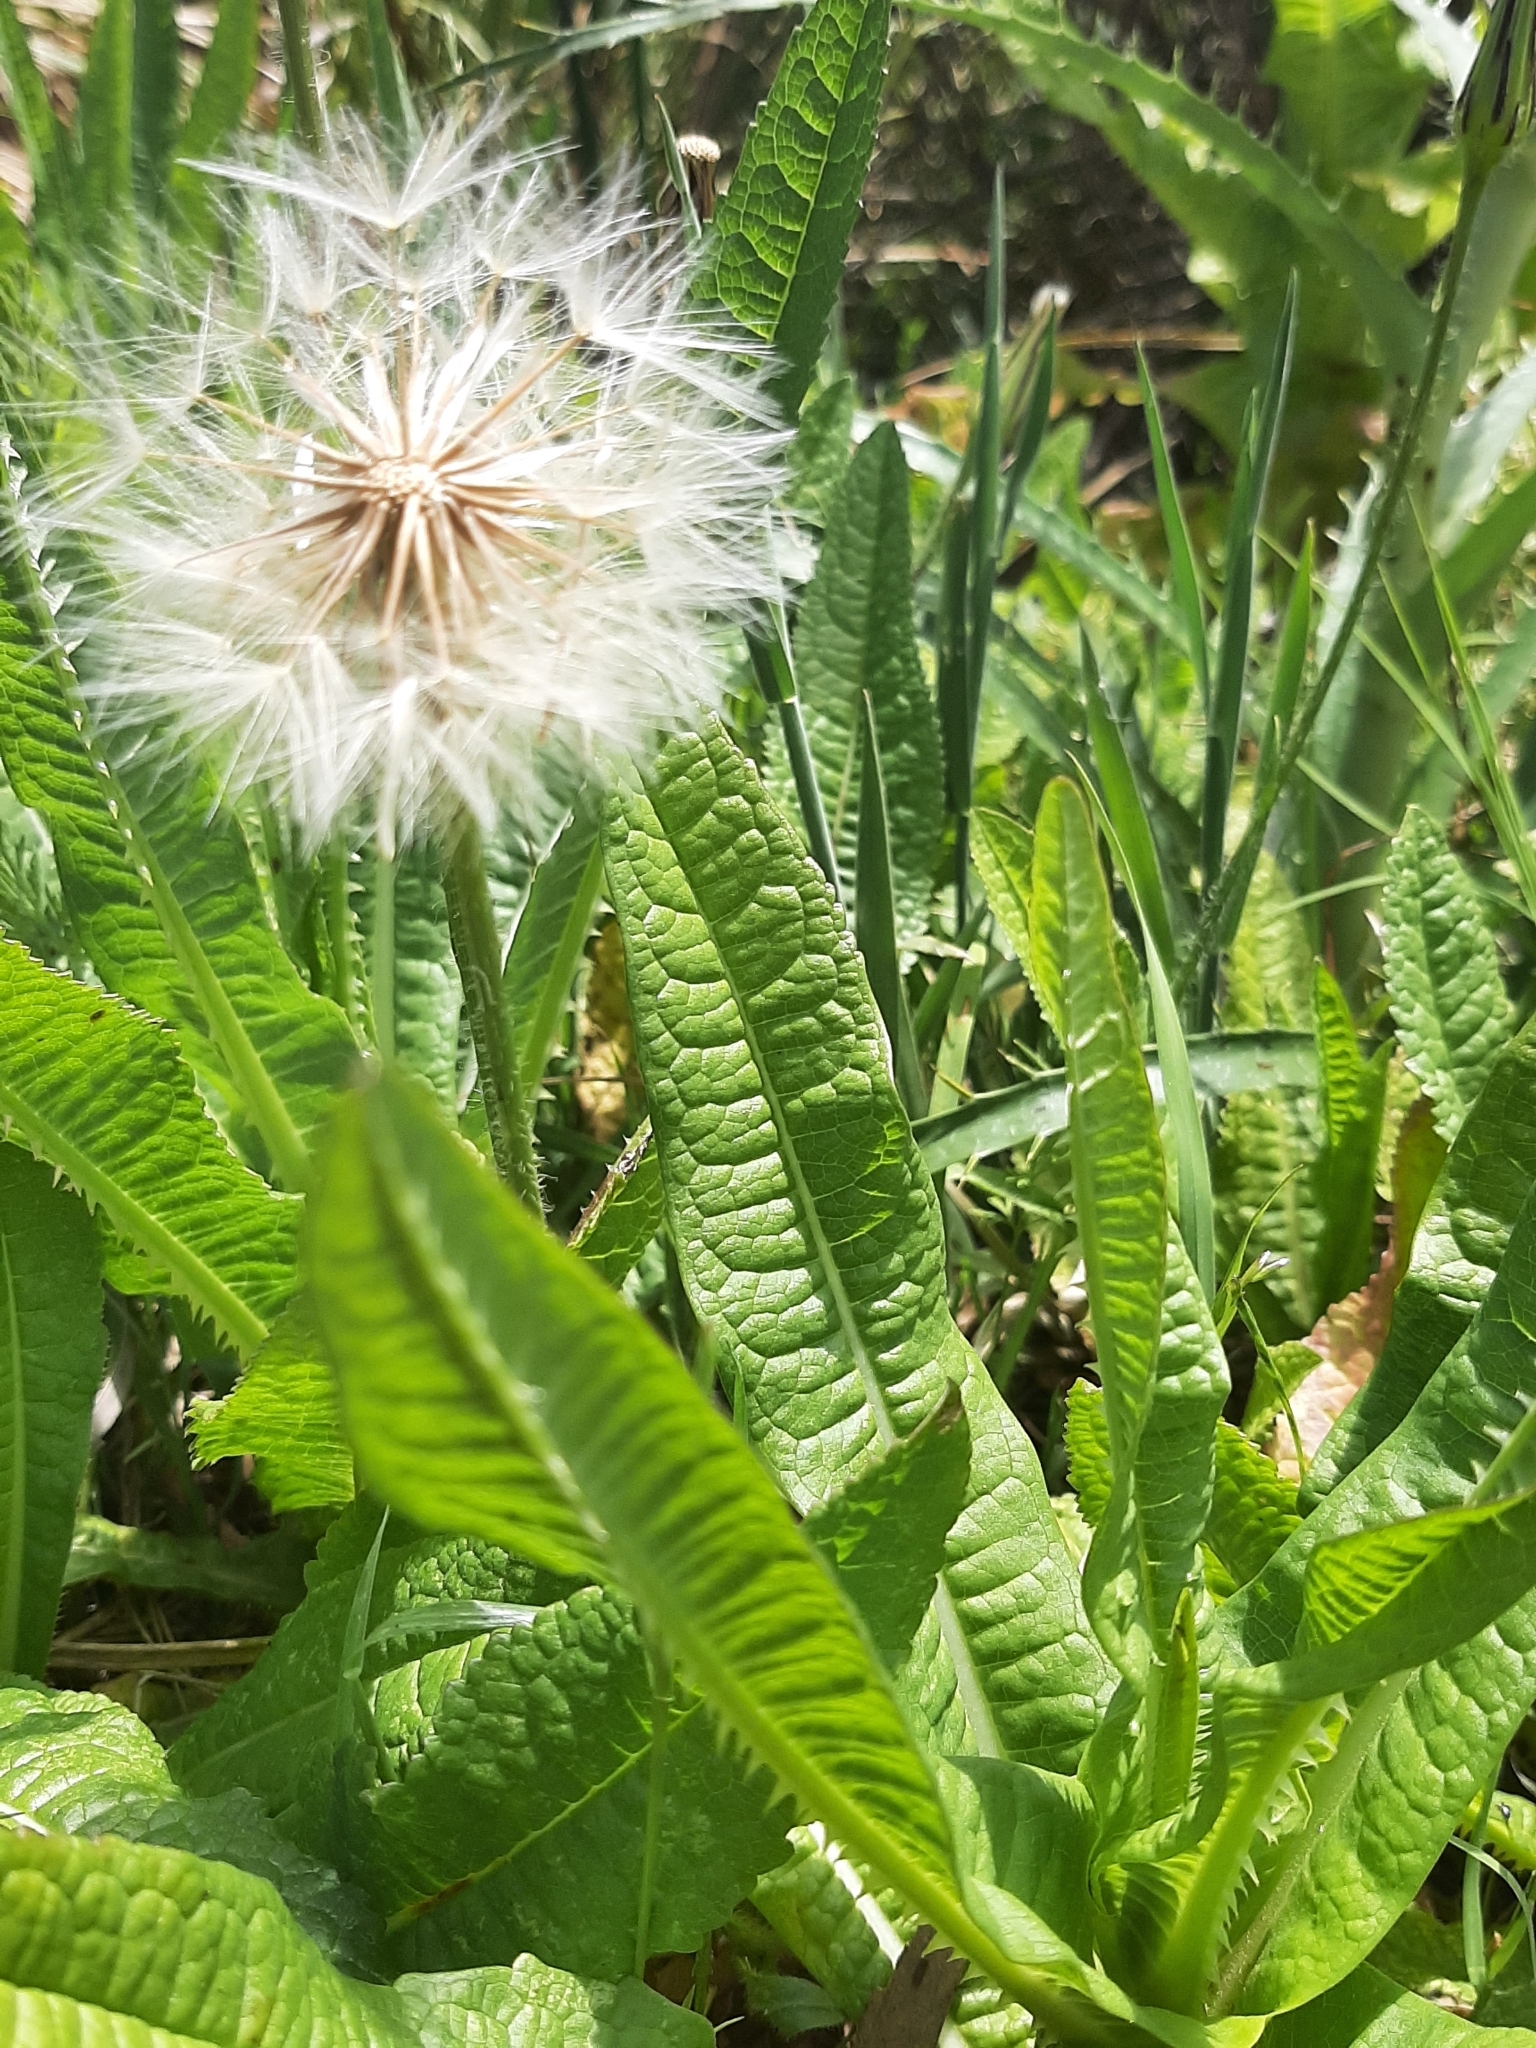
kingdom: Plantae
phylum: Tracheophyta
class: Magnoliopsida
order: Asterales
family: Asteraceae
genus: Hypochaeris
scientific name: Hypochaeris megapotamica
